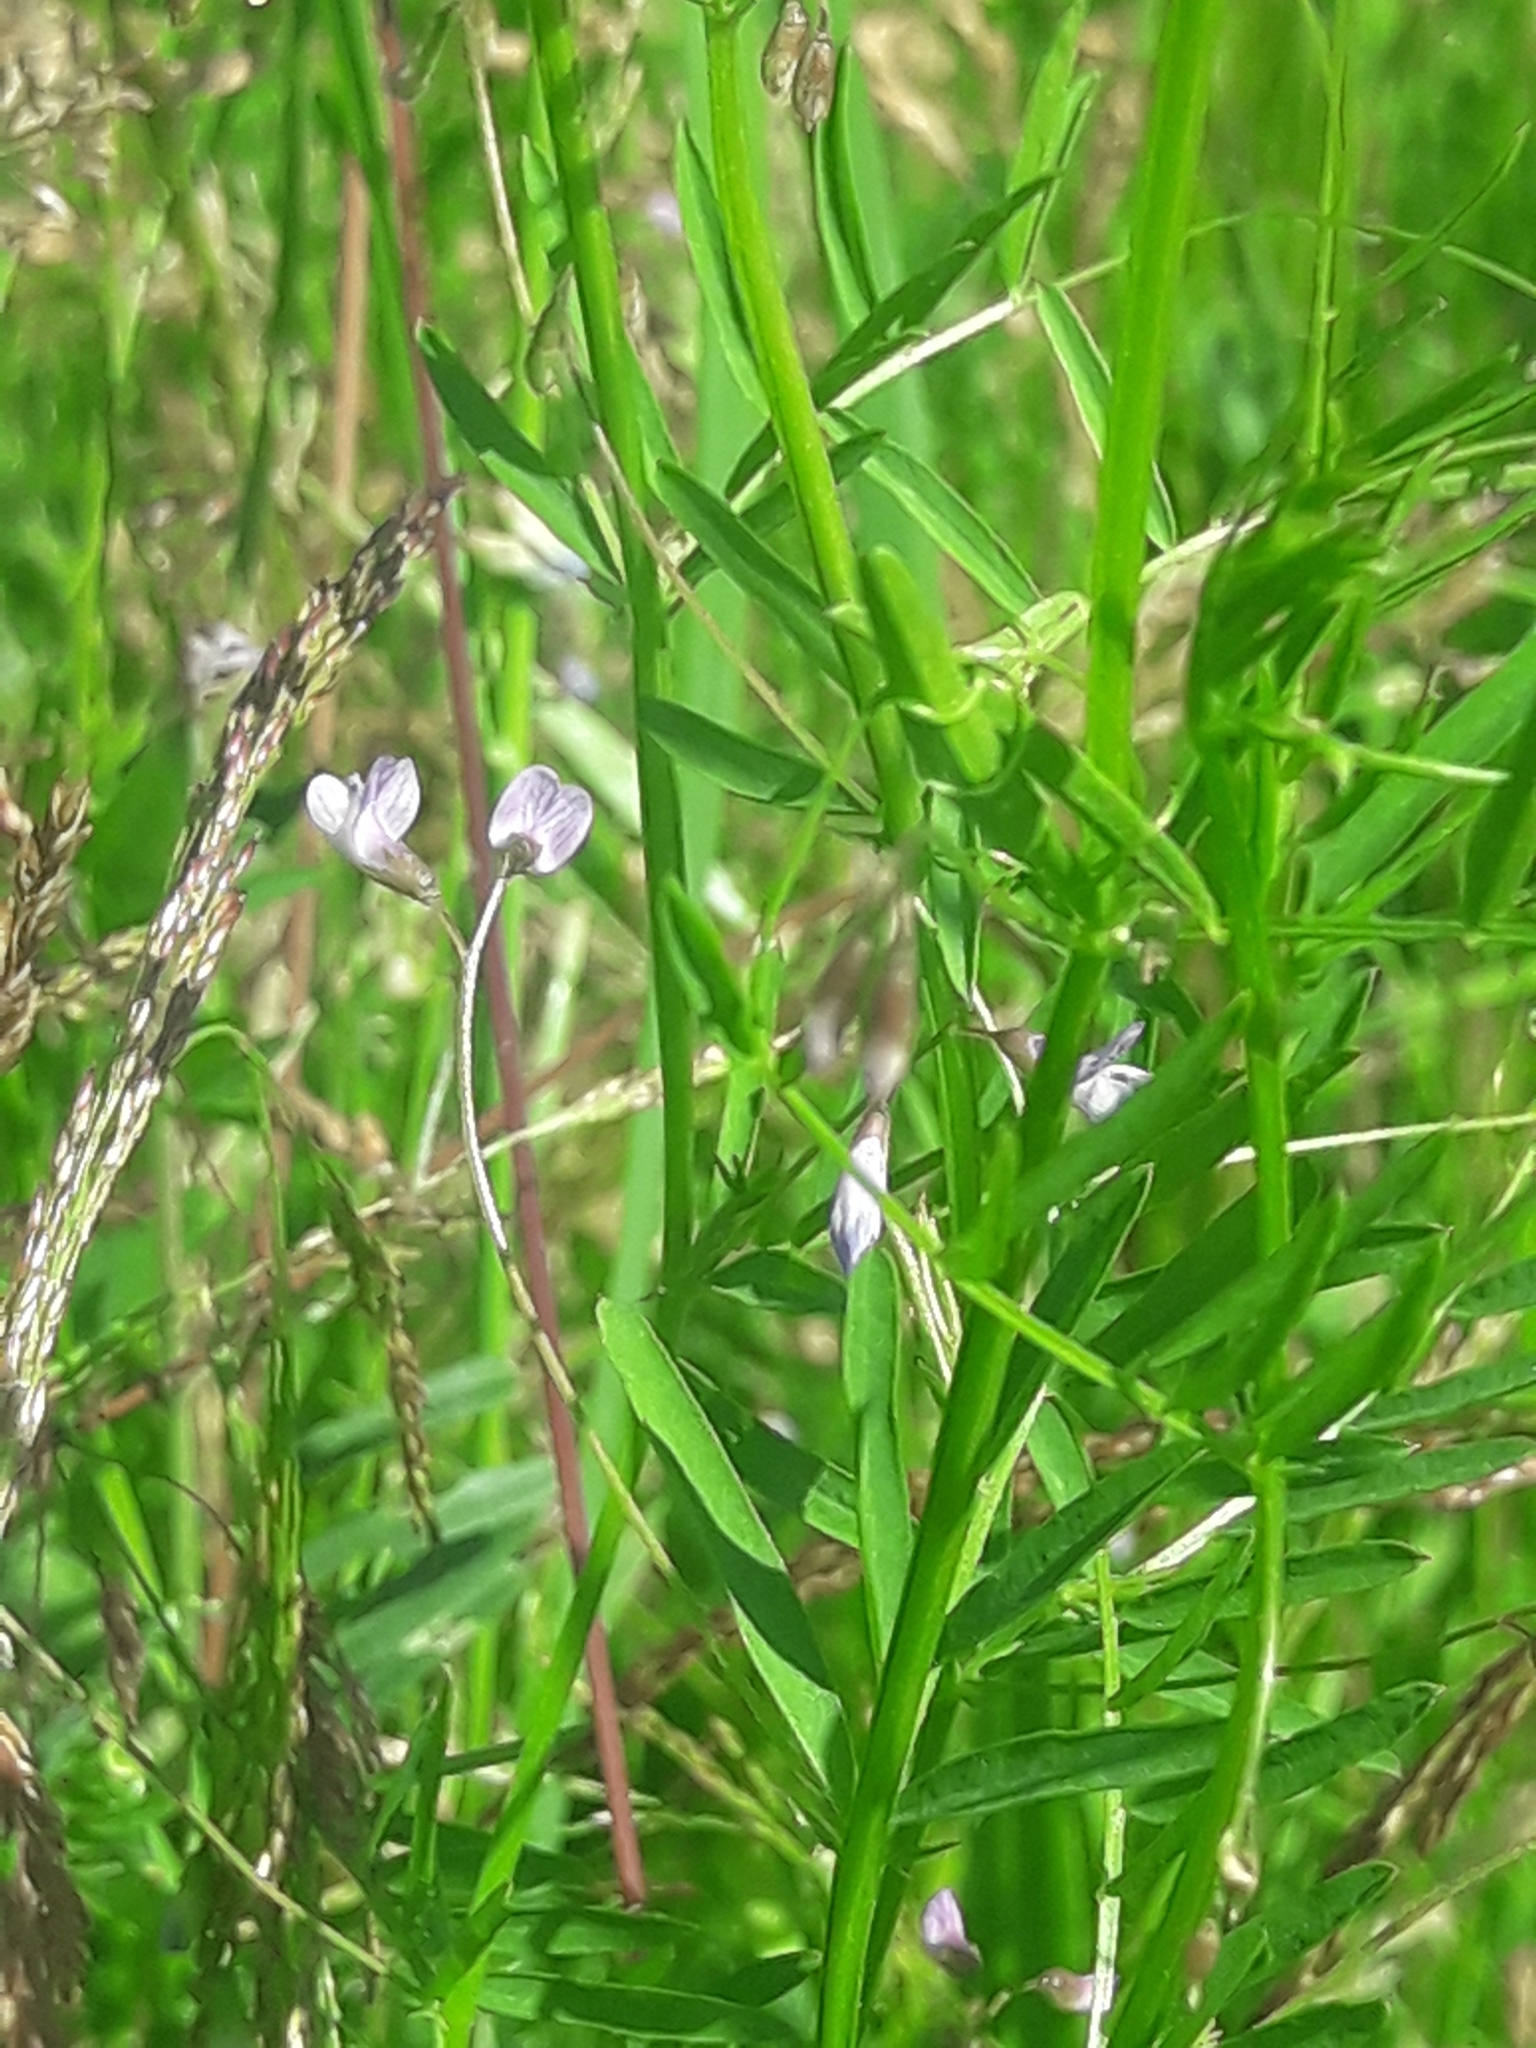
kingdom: Plantae
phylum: Tracheophyta
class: Magnoliopsida
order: Fabales
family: Fabaceae
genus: Vicia
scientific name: Vicia tetrasperma
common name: Smooth tare
